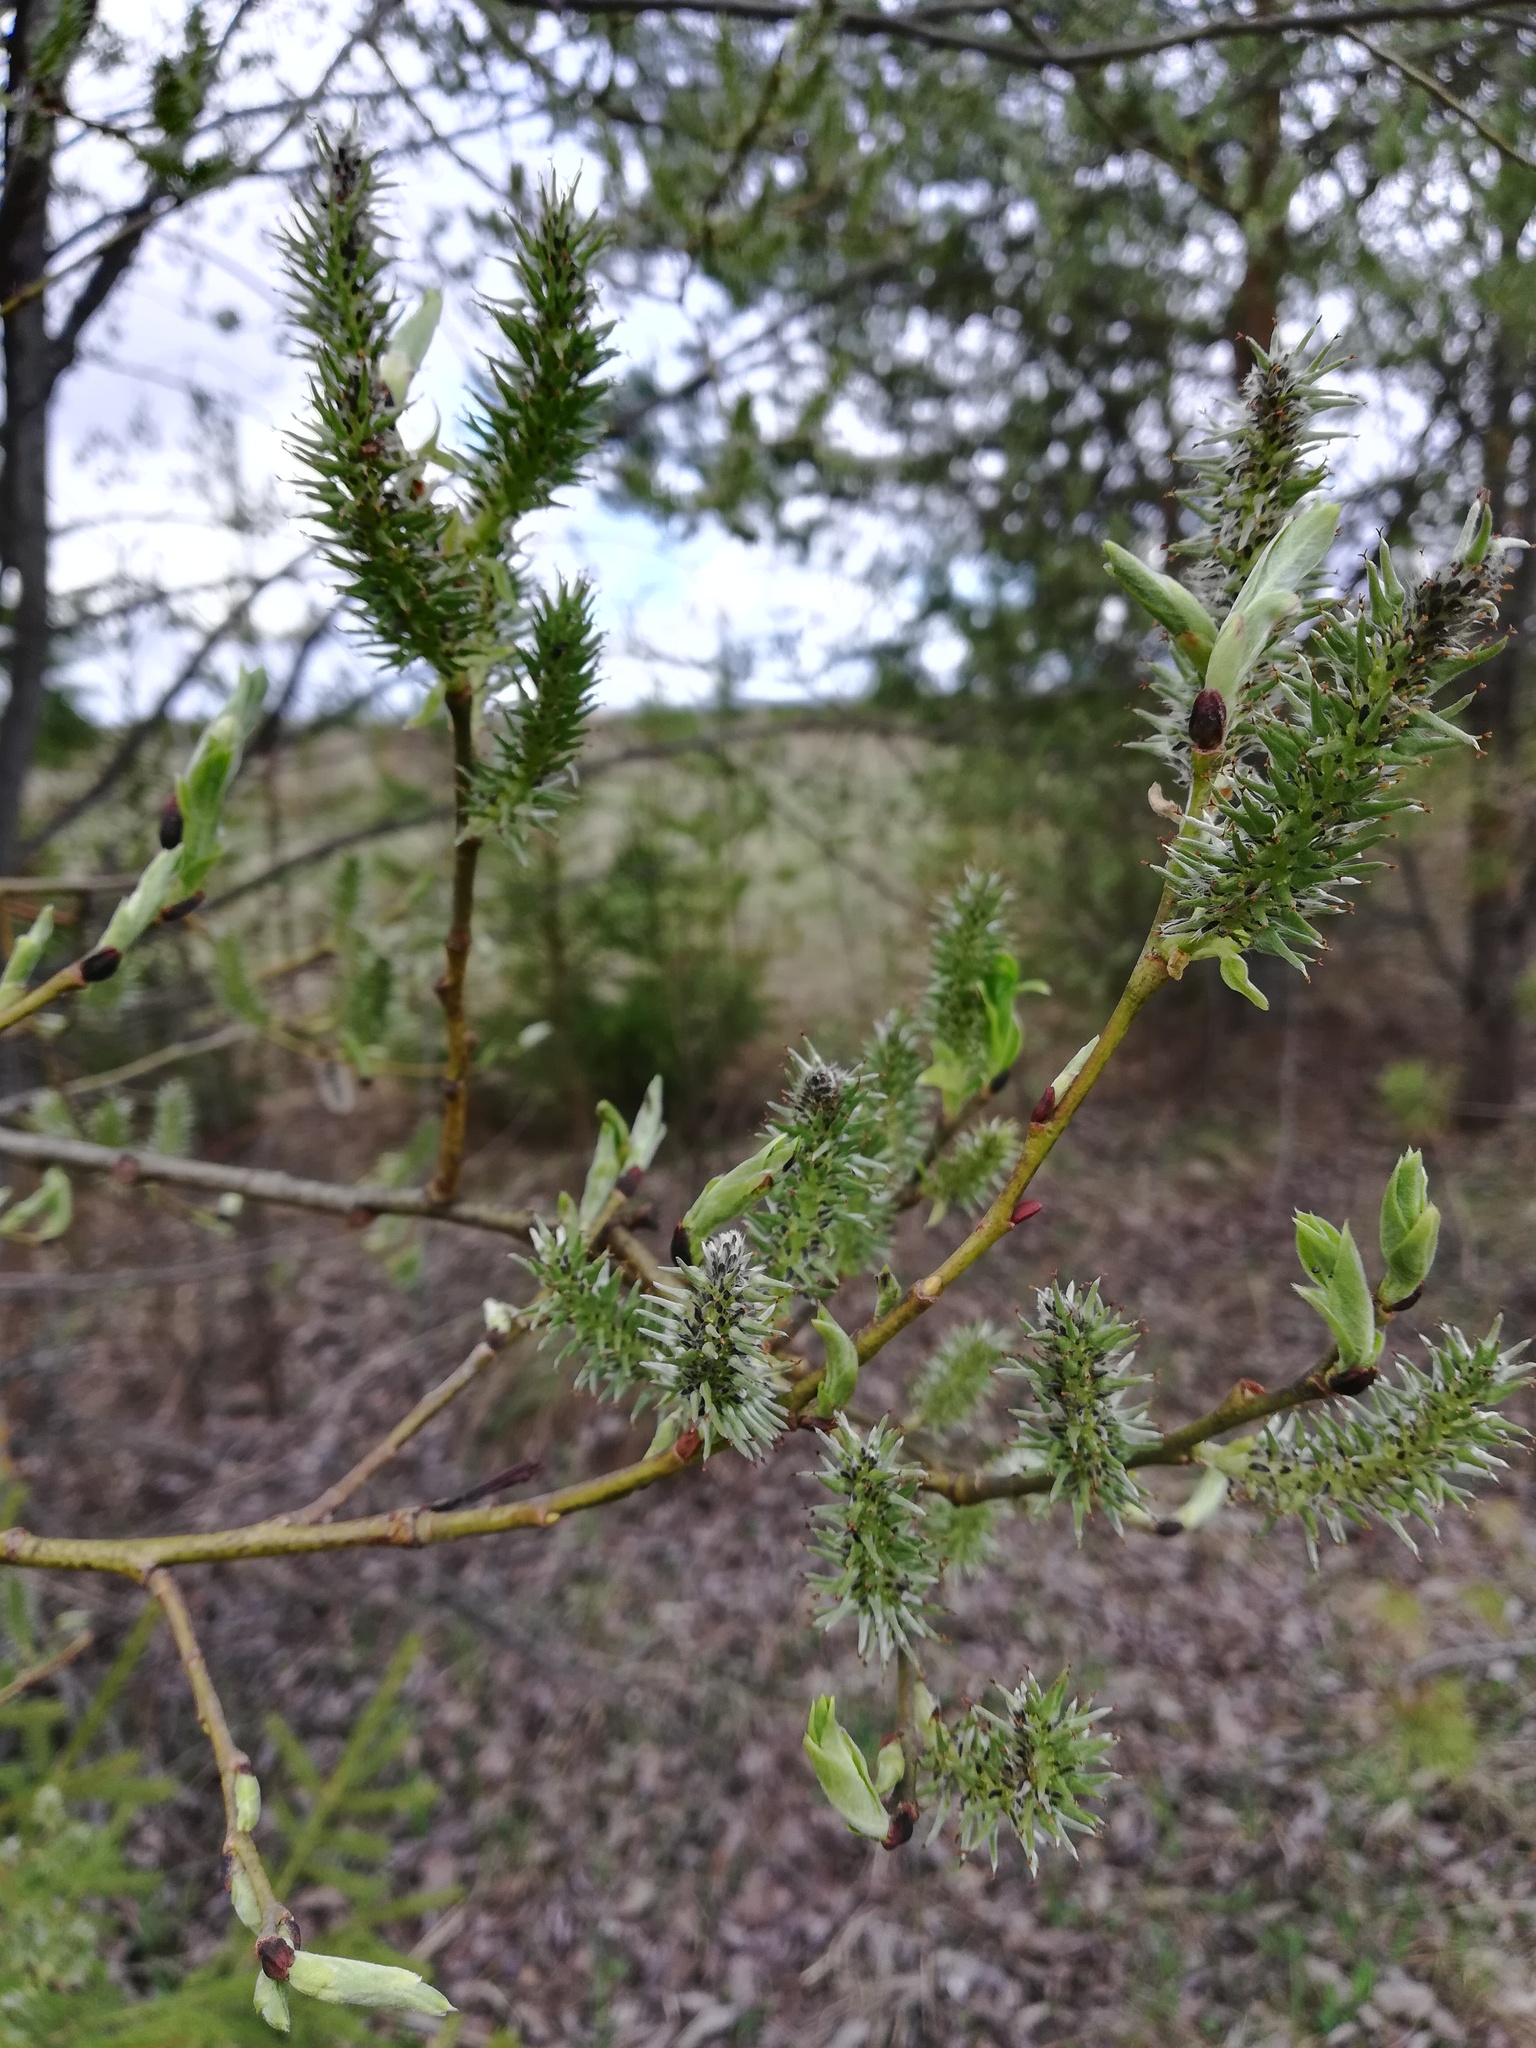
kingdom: Plantae
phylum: Tracheophyta
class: Magnoliopsida
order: Malpighiales
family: Salicaceae
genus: Salix
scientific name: Salix caprea
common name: Goat willow
